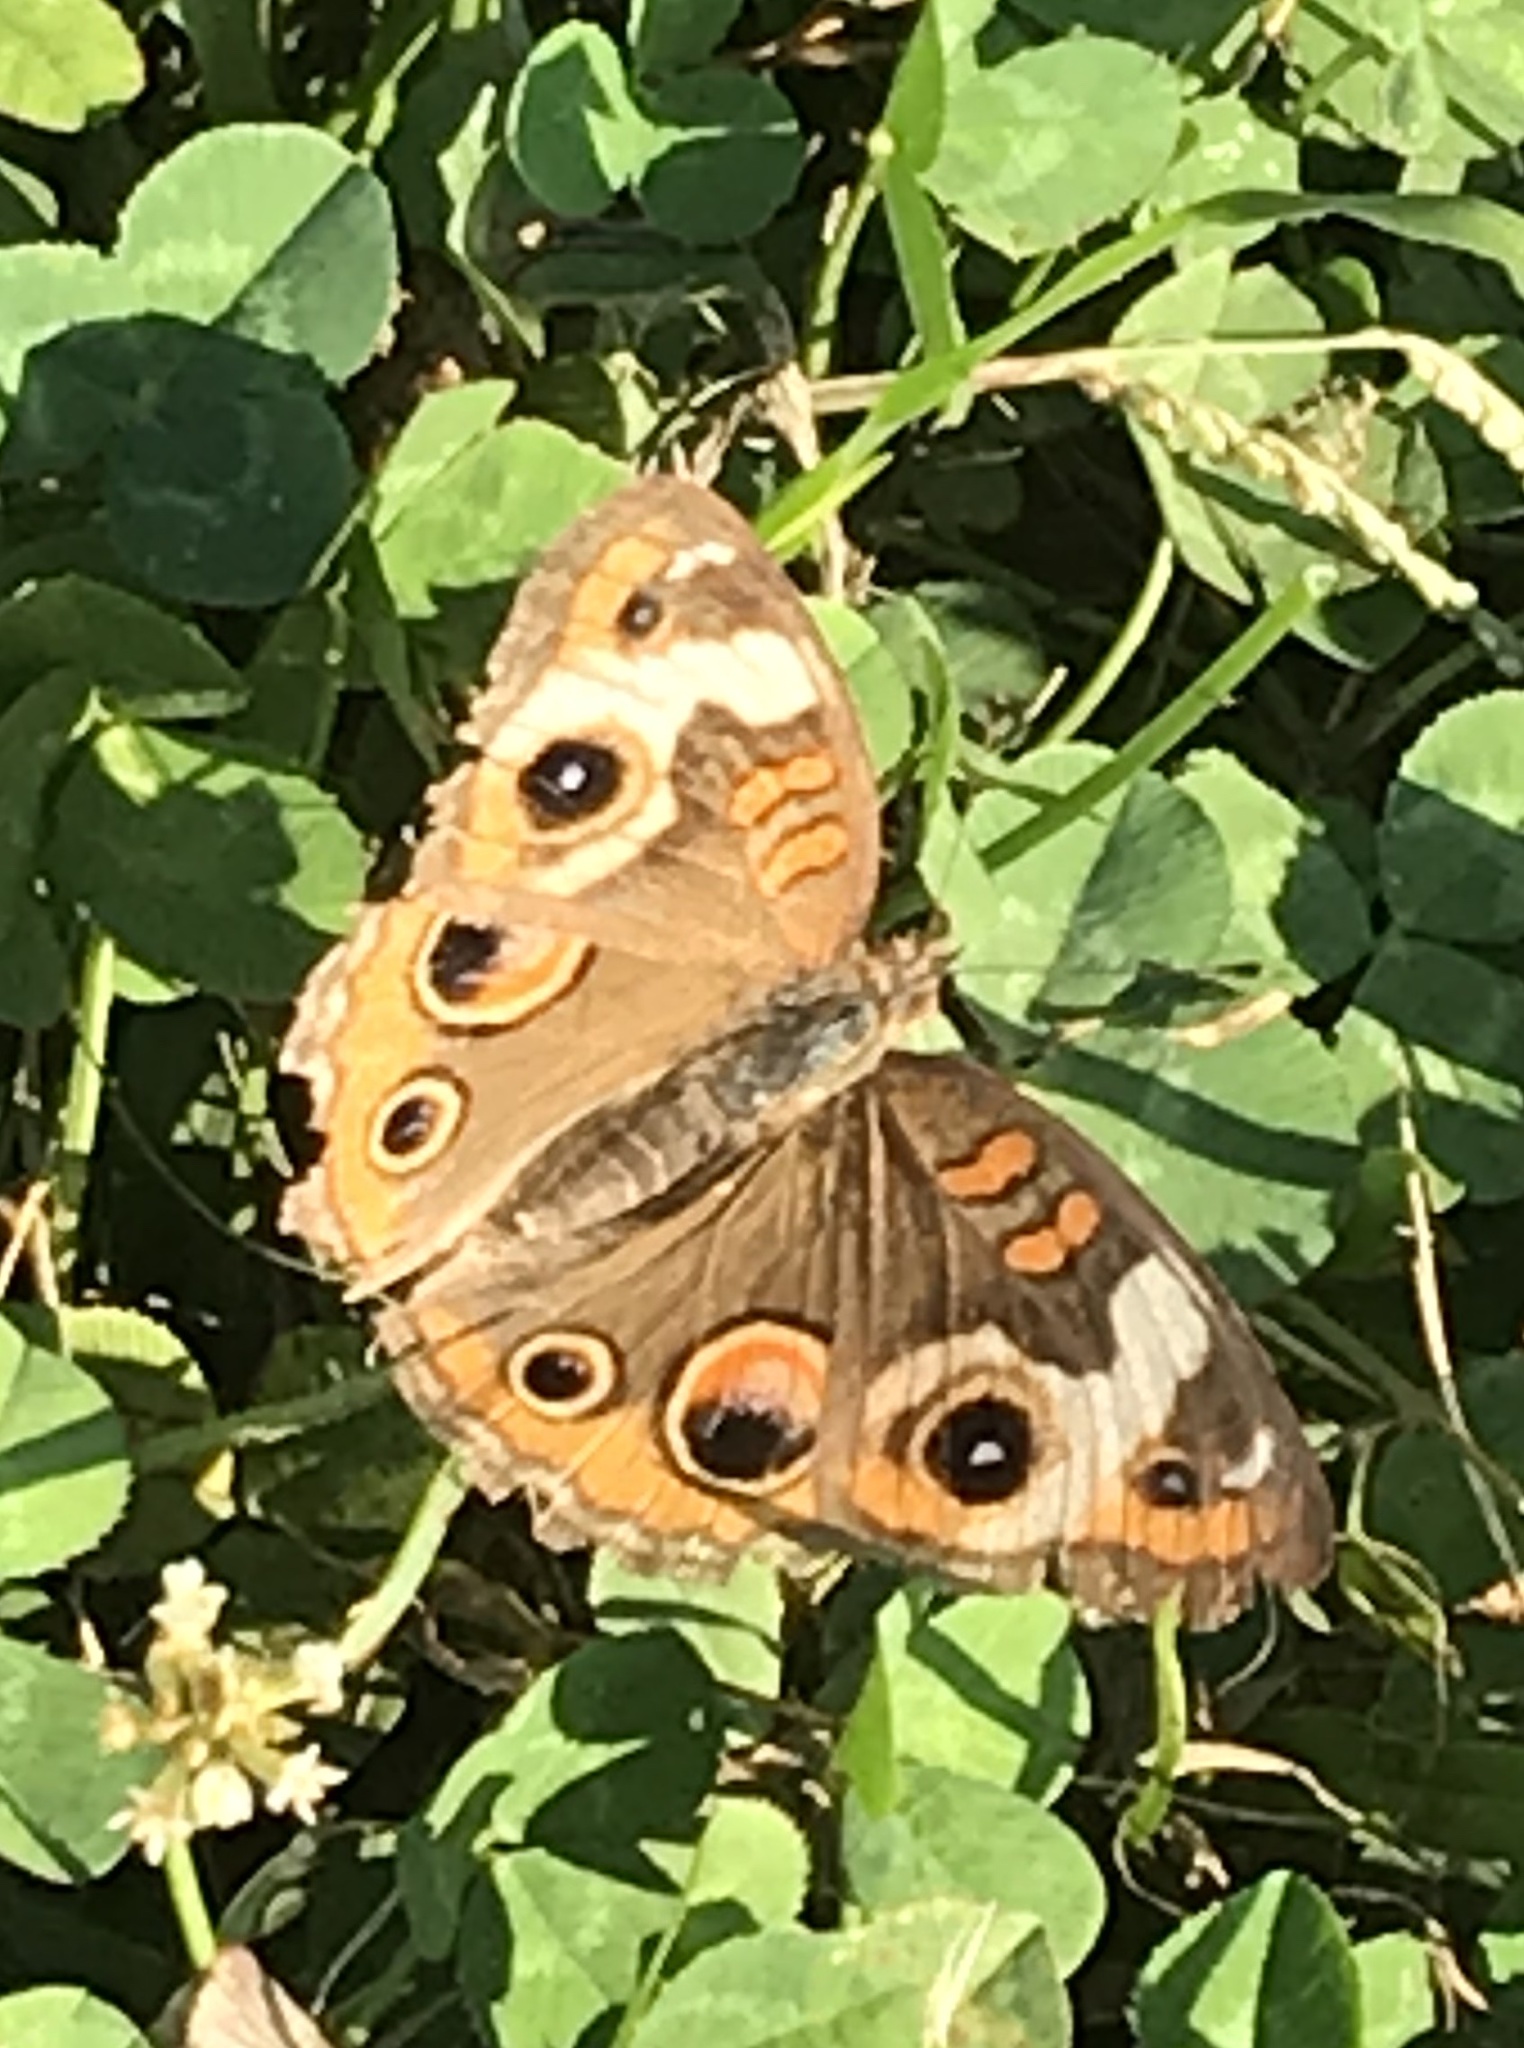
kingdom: Animalia
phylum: Arthropoda
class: Insecta
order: Lepidoptera
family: Nymphalidae
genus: Junonia
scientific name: Junonia coenia
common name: Common buckeye
